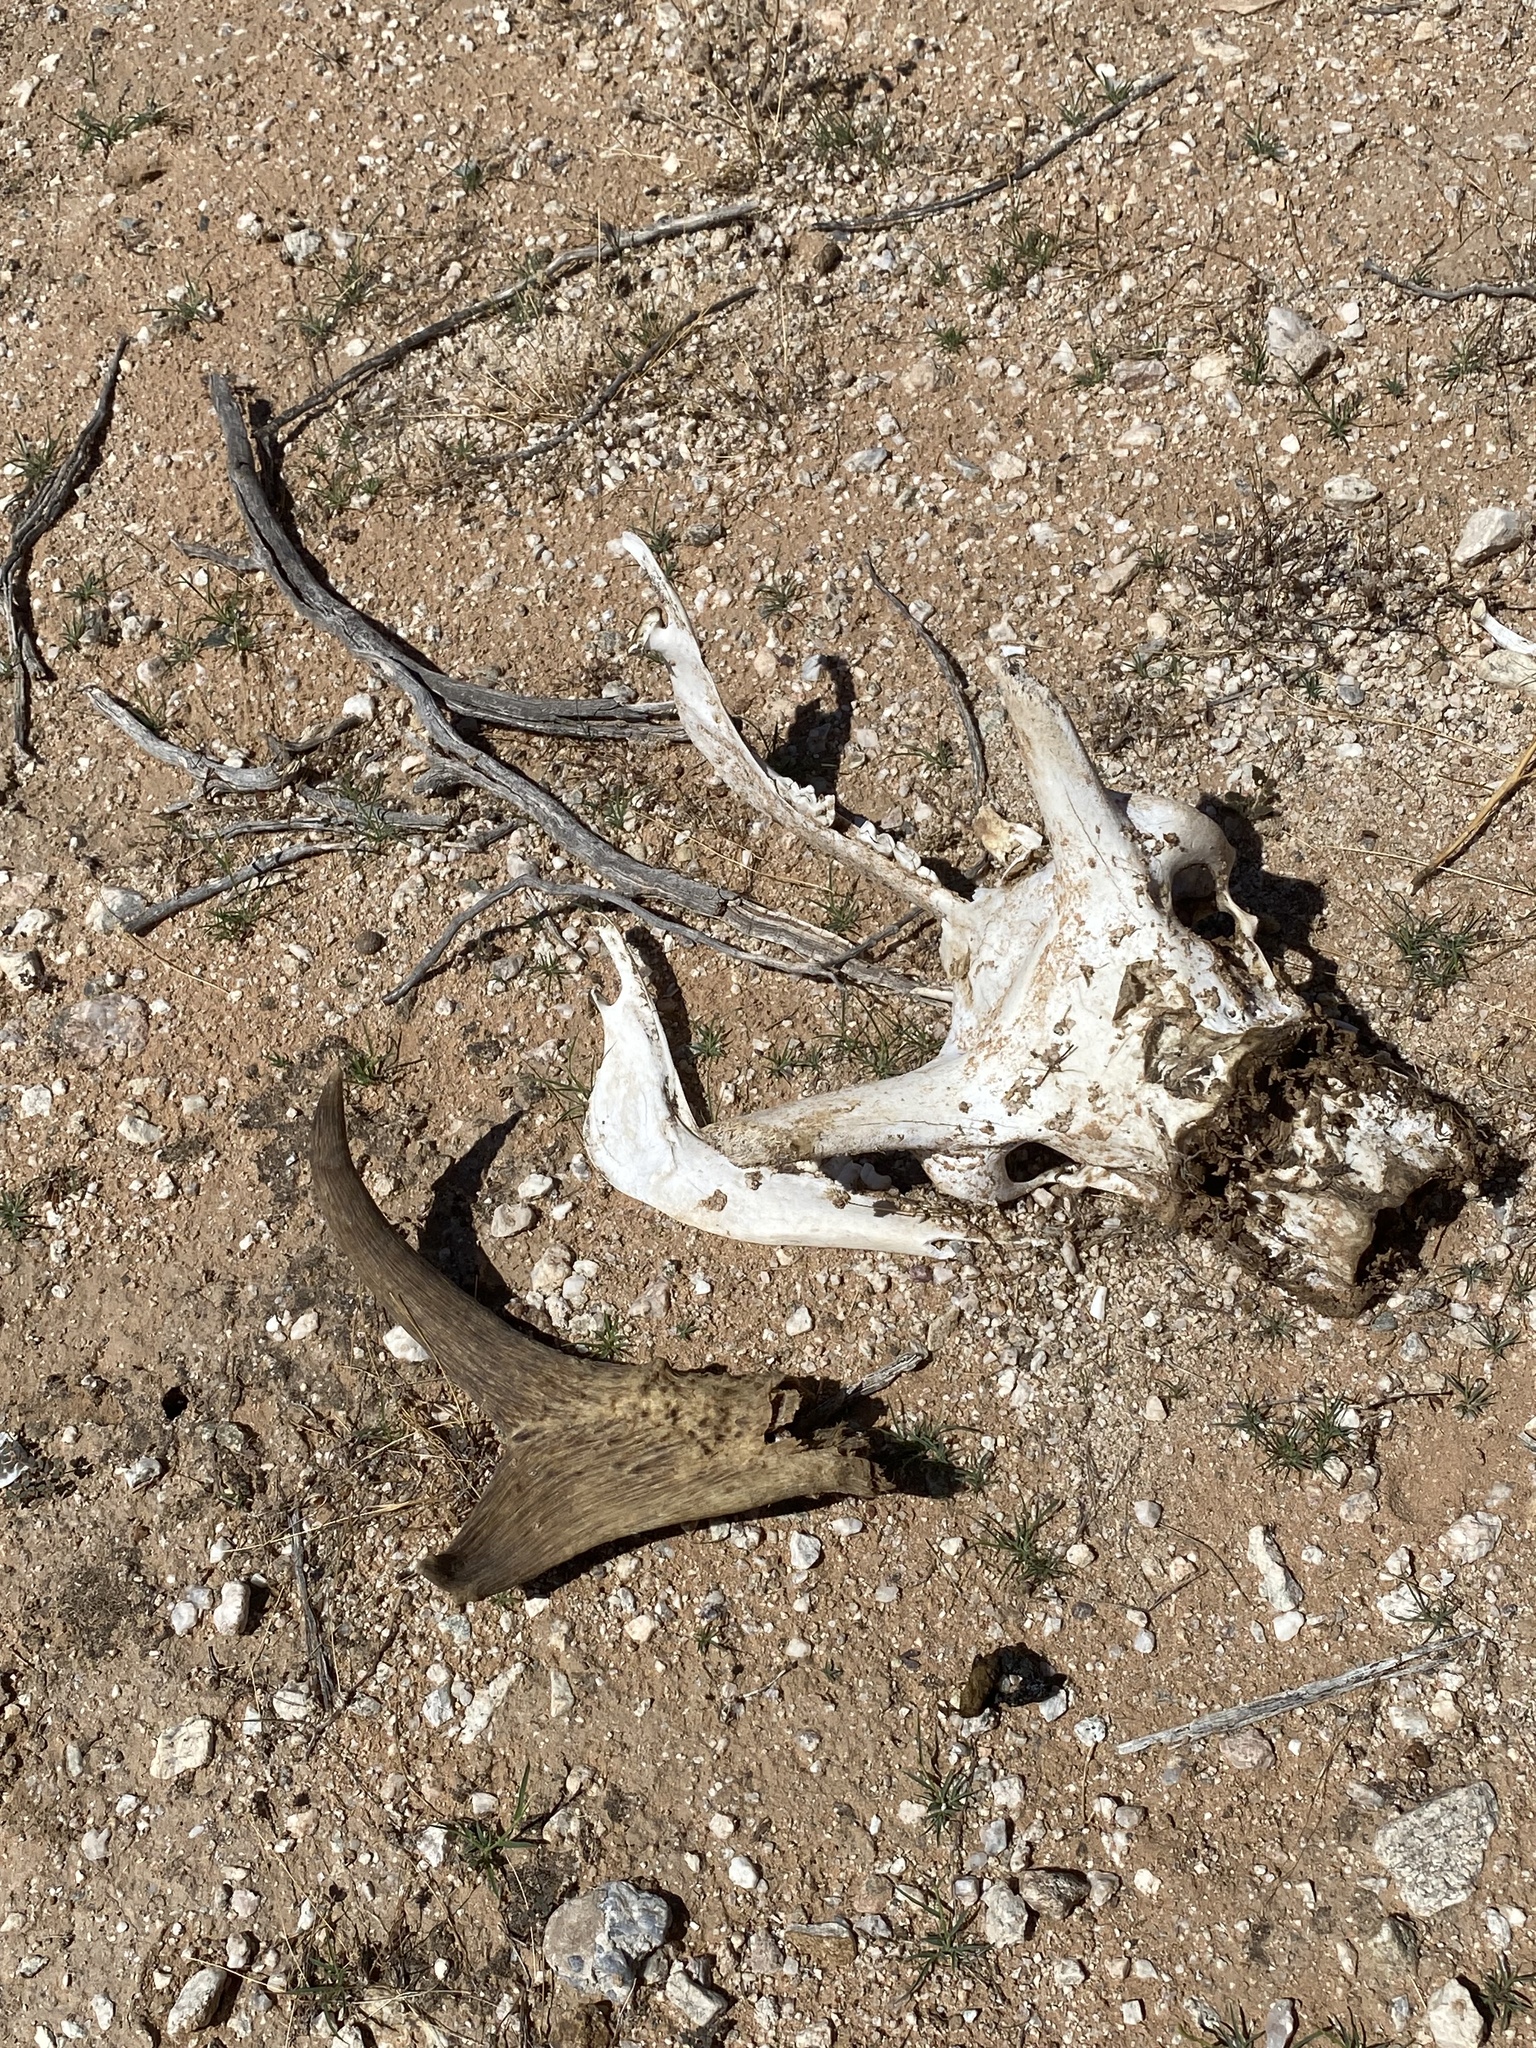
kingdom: Animalia
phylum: Chordata
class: Mammalia
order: Artiodactyla
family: Antilocapridae
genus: Antilocapra
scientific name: Antilocapra americana
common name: Pronghorn
